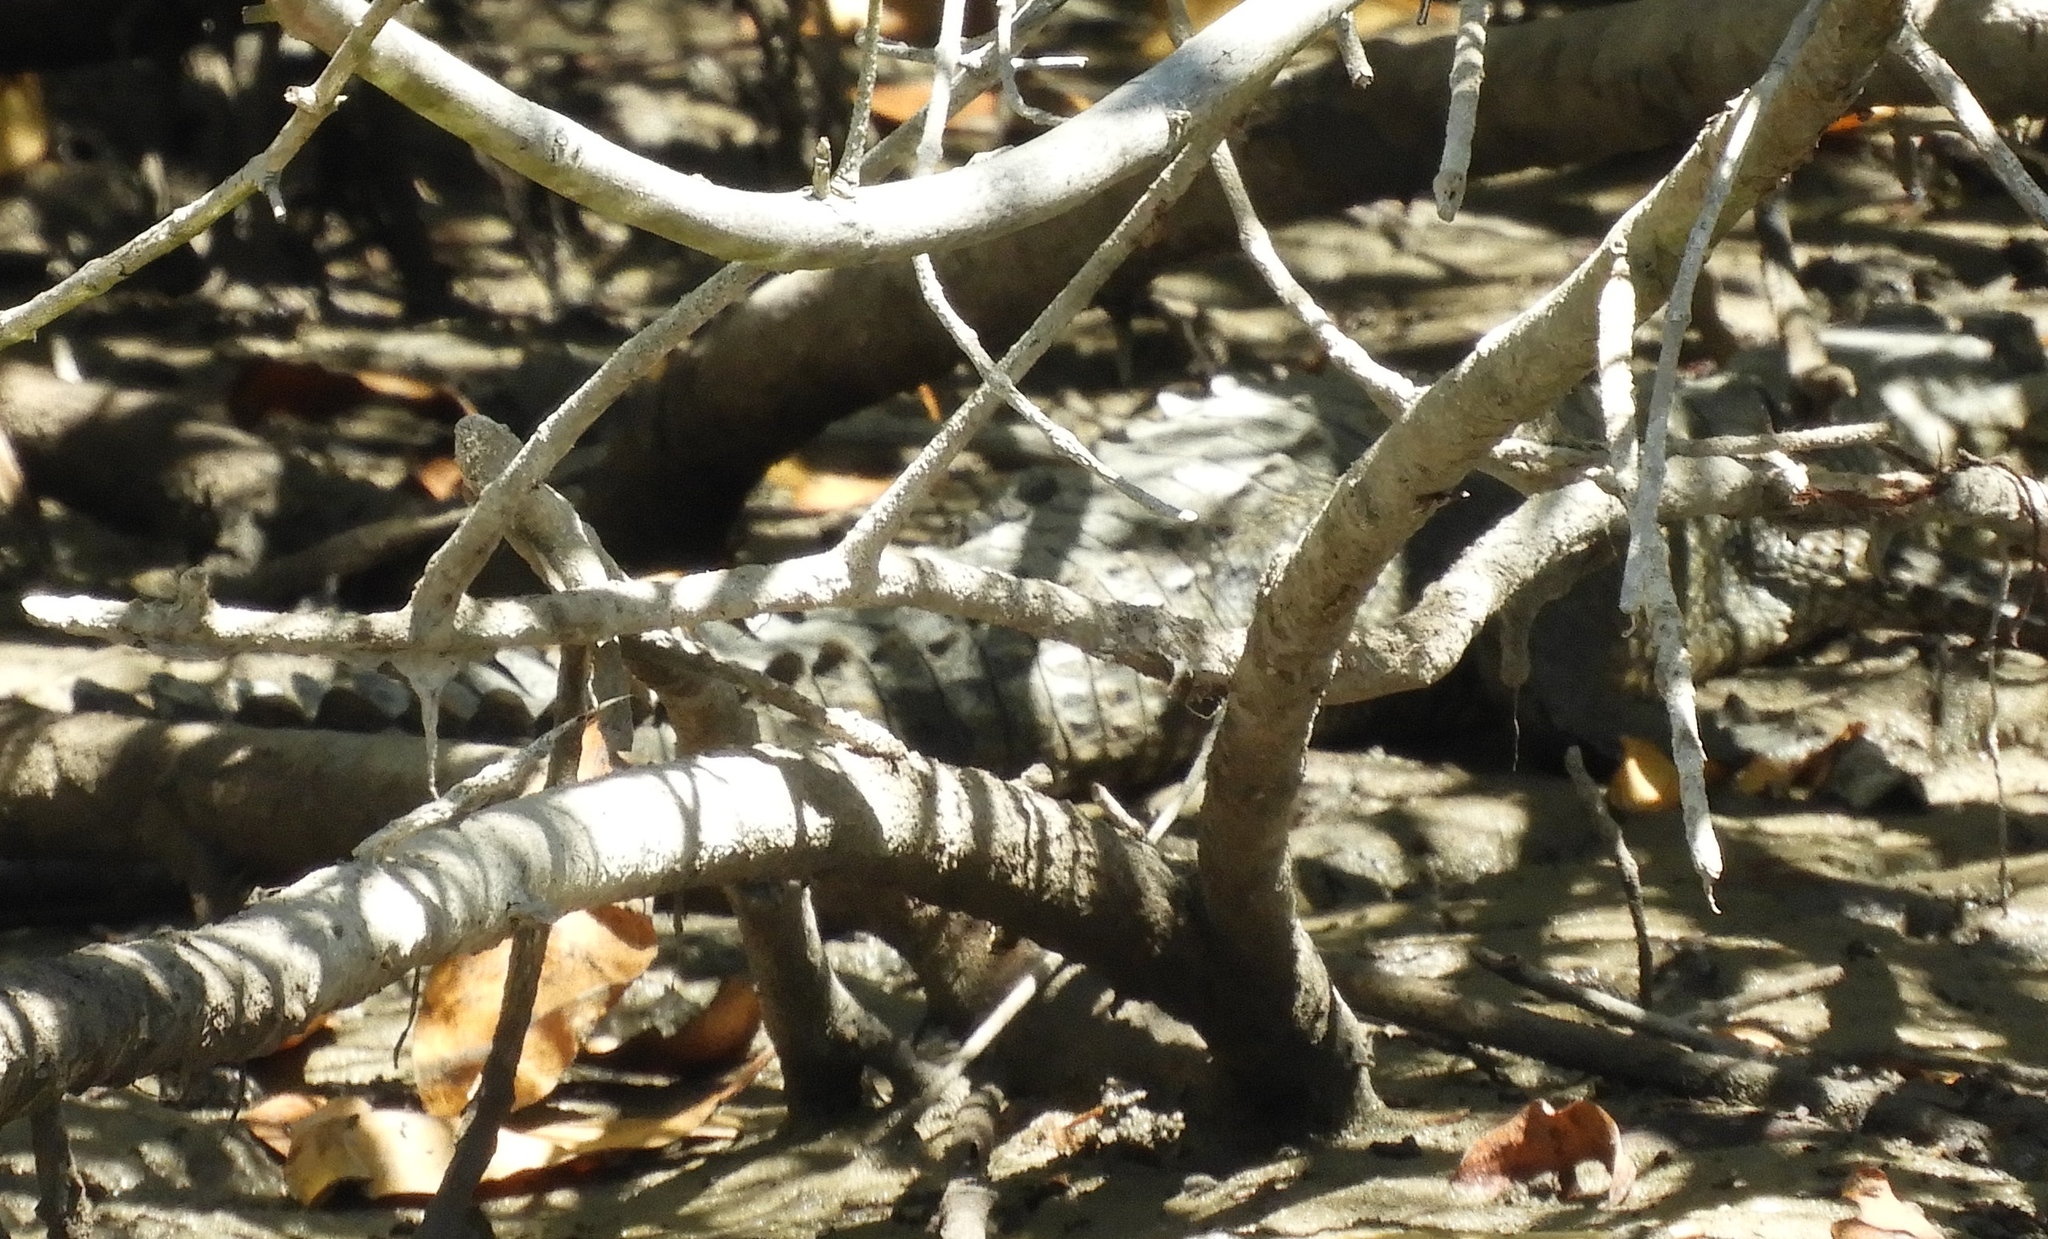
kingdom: Animalia
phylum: Chordata
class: Crocodylia
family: Crocodylidae
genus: Crocodylus
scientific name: Crocodylus acutus
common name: American crocodile
